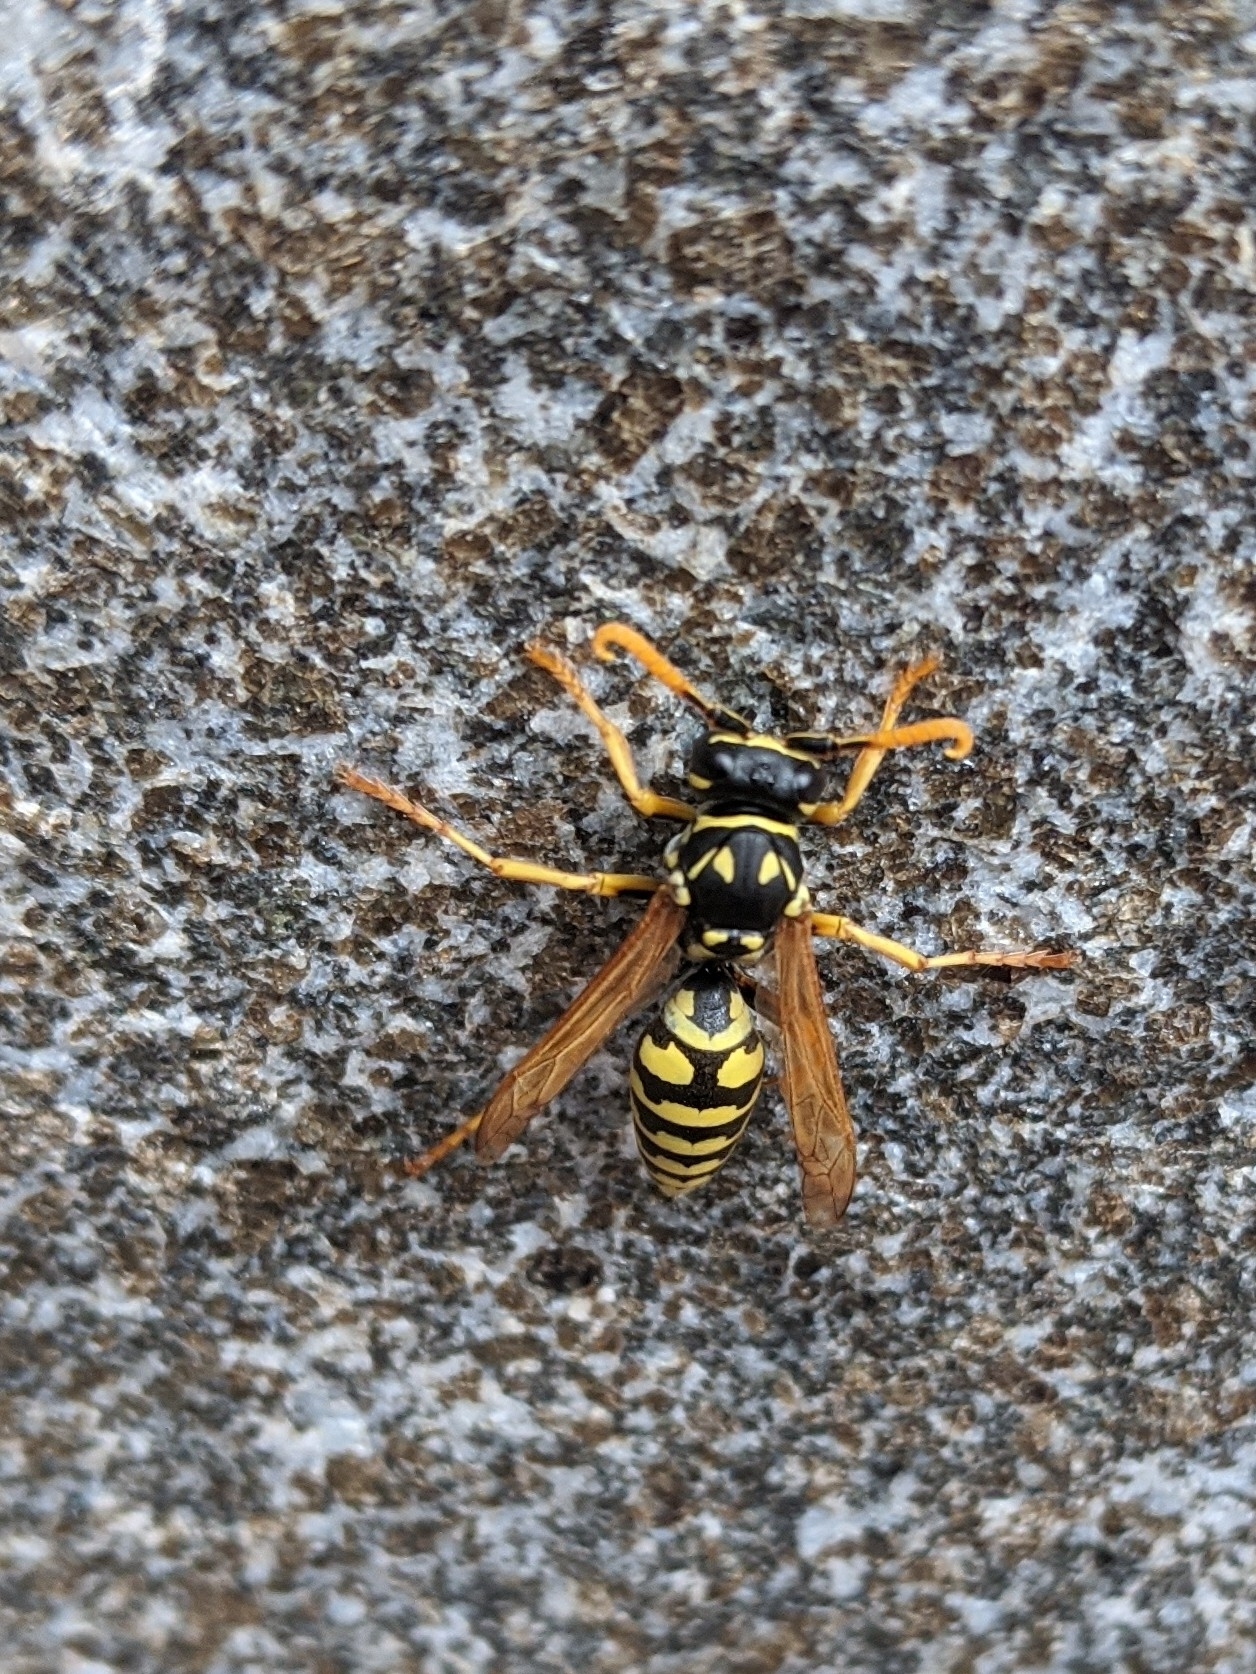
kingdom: Animalia
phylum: Arthropoda
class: Insecta
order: Hymenoptera
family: Eumenidae
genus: Polistes
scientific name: Polistes dominula
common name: Paper wasp
